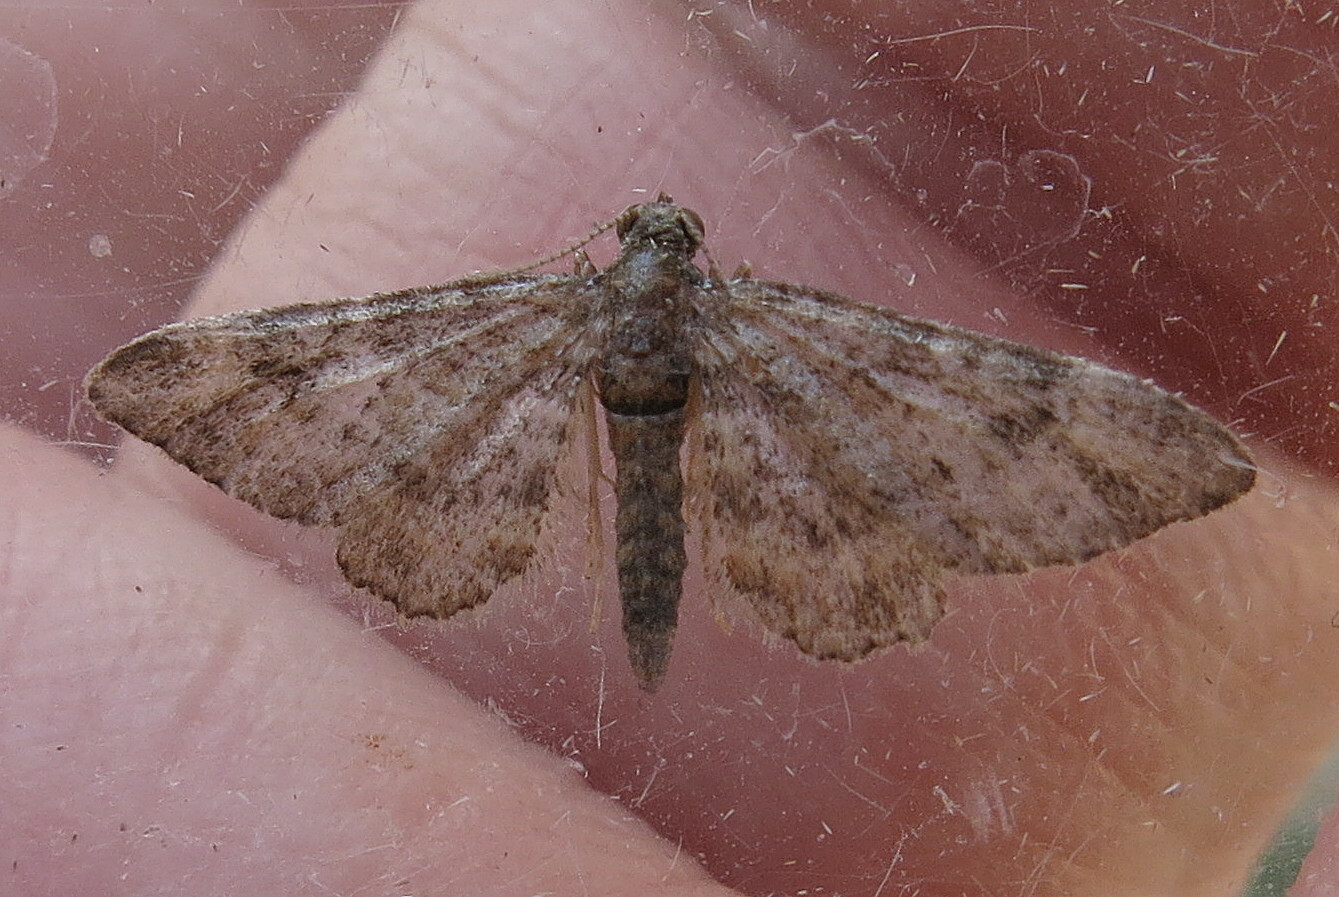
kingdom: Animalia
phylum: Arthropoda
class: Insecta
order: Lepidoptera
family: Geometridae
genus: Gymnoscelis
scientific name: Gymnoscelis rufifasciata
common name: Double-striped pug
